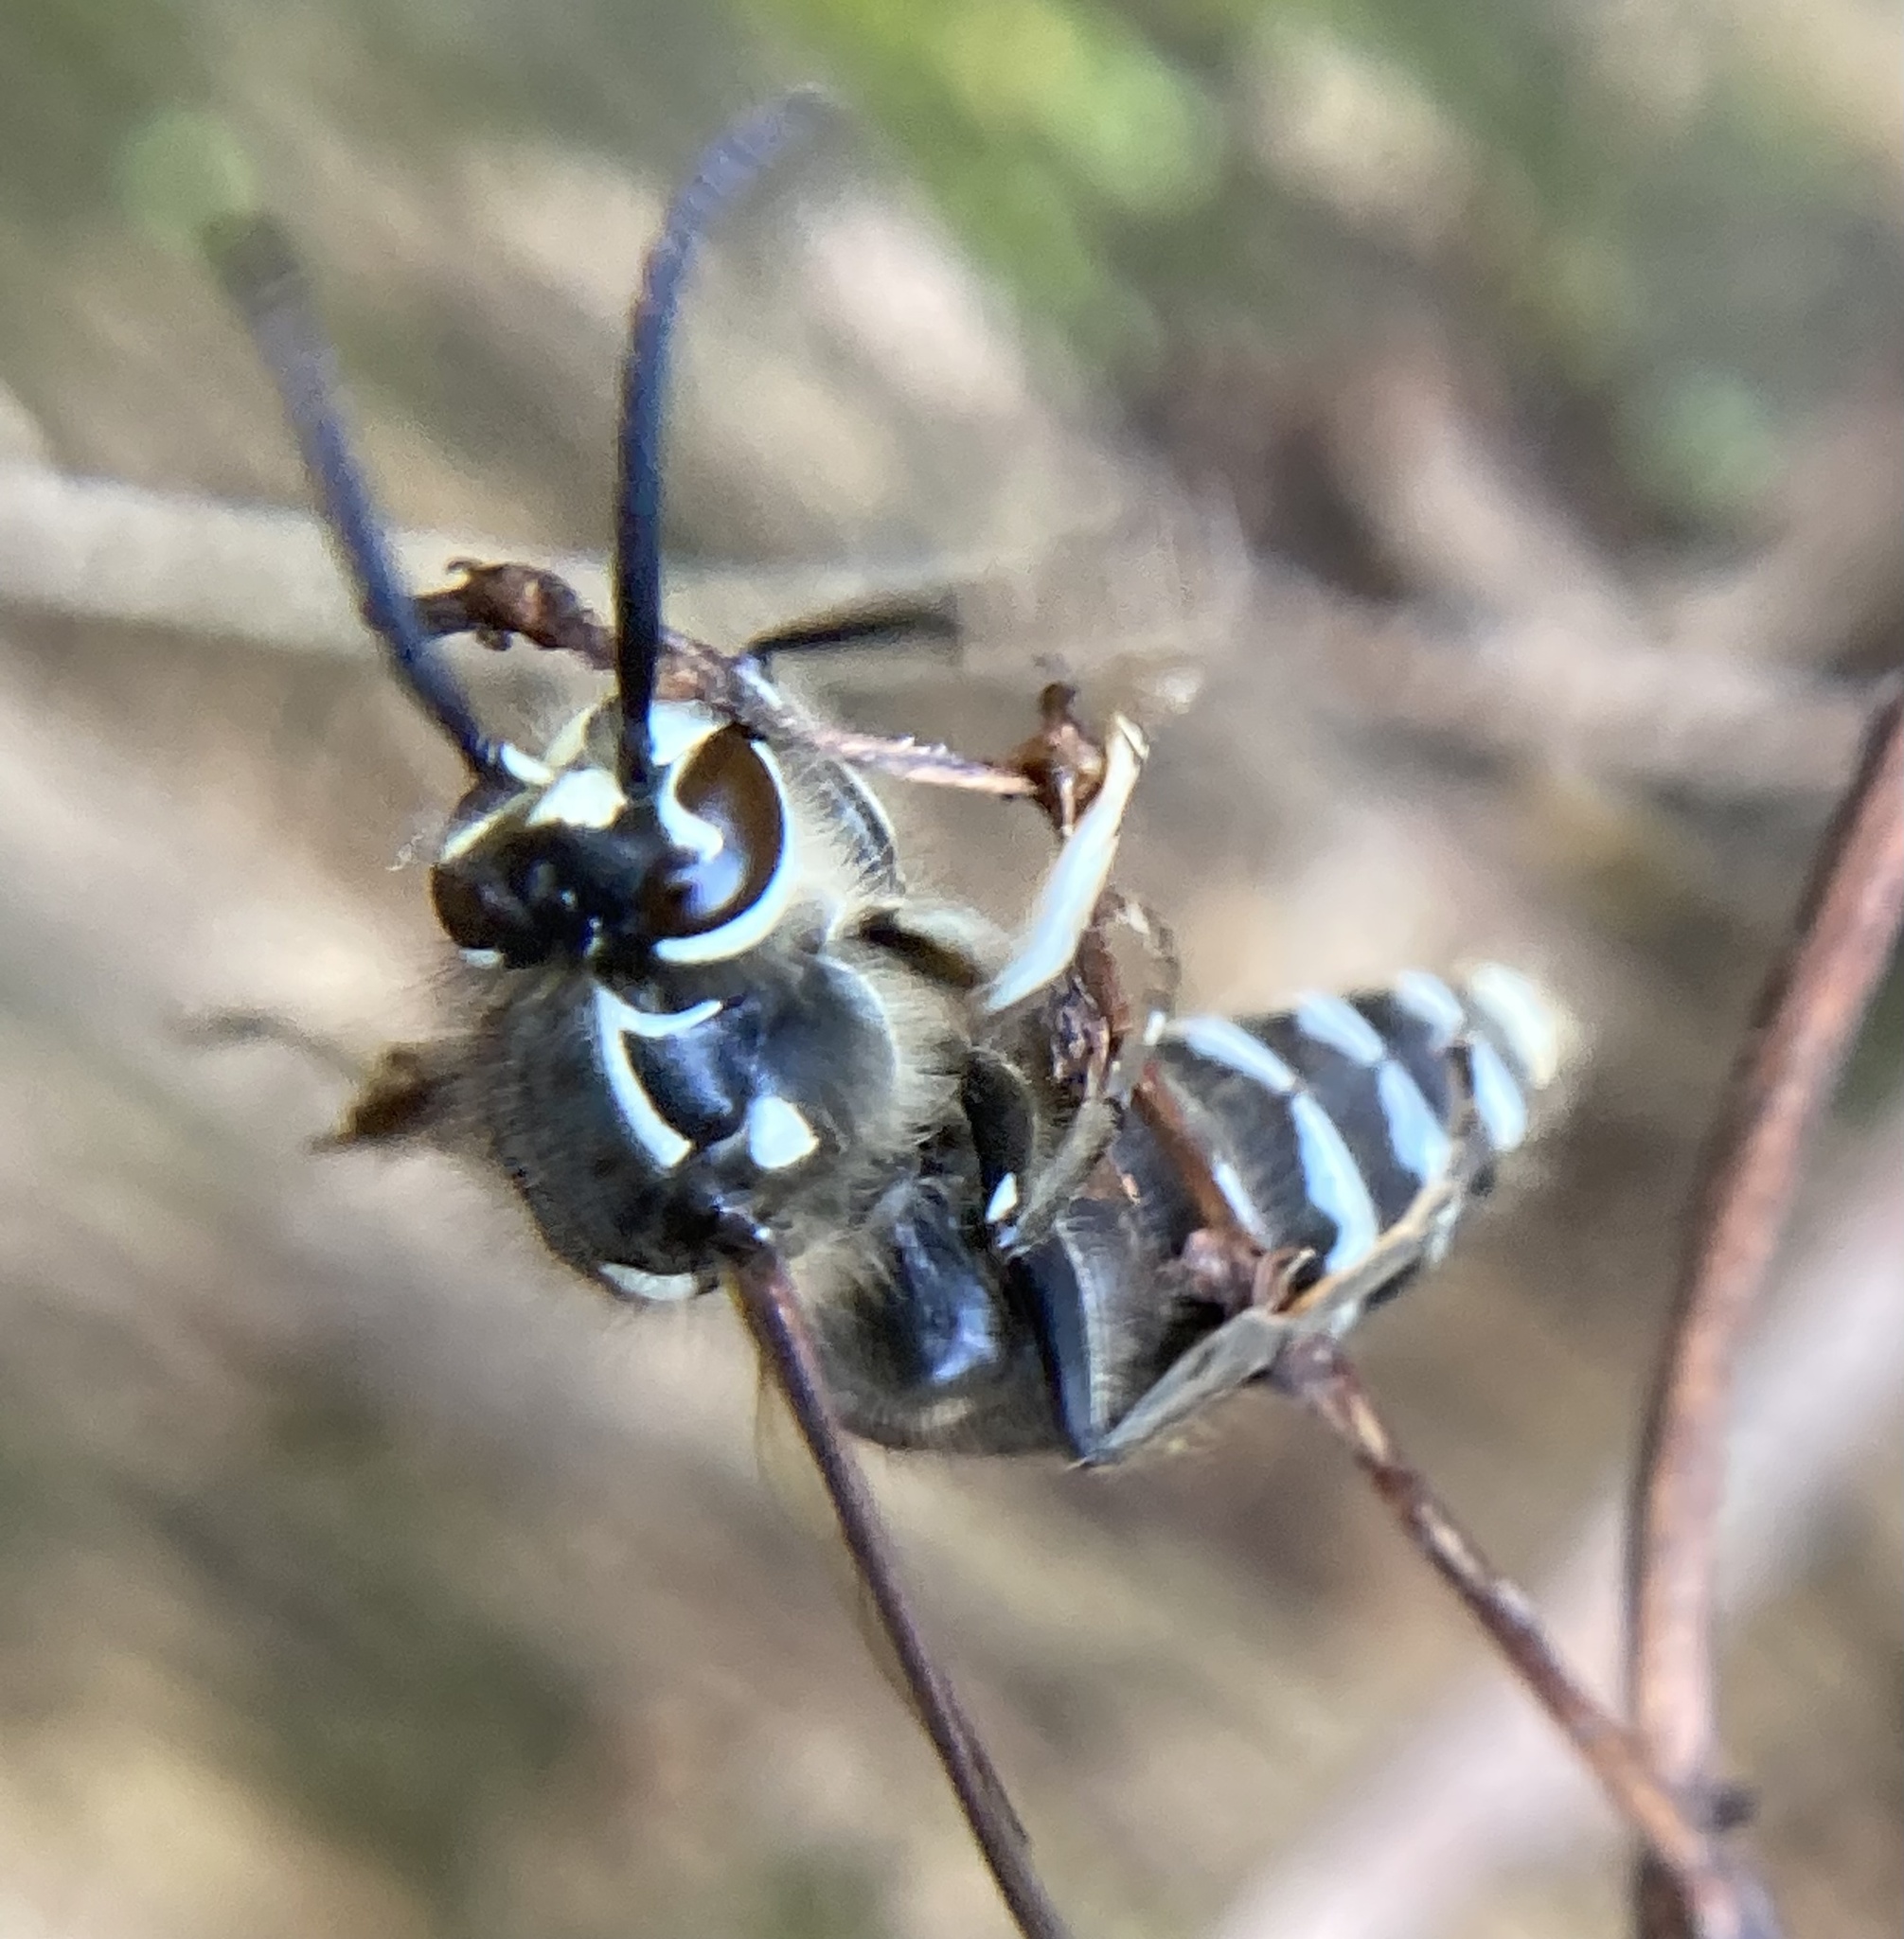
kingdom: Animalia
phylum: Arthropoda
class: Insecta
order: Hymenoptera
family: Vespidae
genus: Dolichovespula
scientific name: Dolichovespula maculata
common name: Bald-faced hornet
